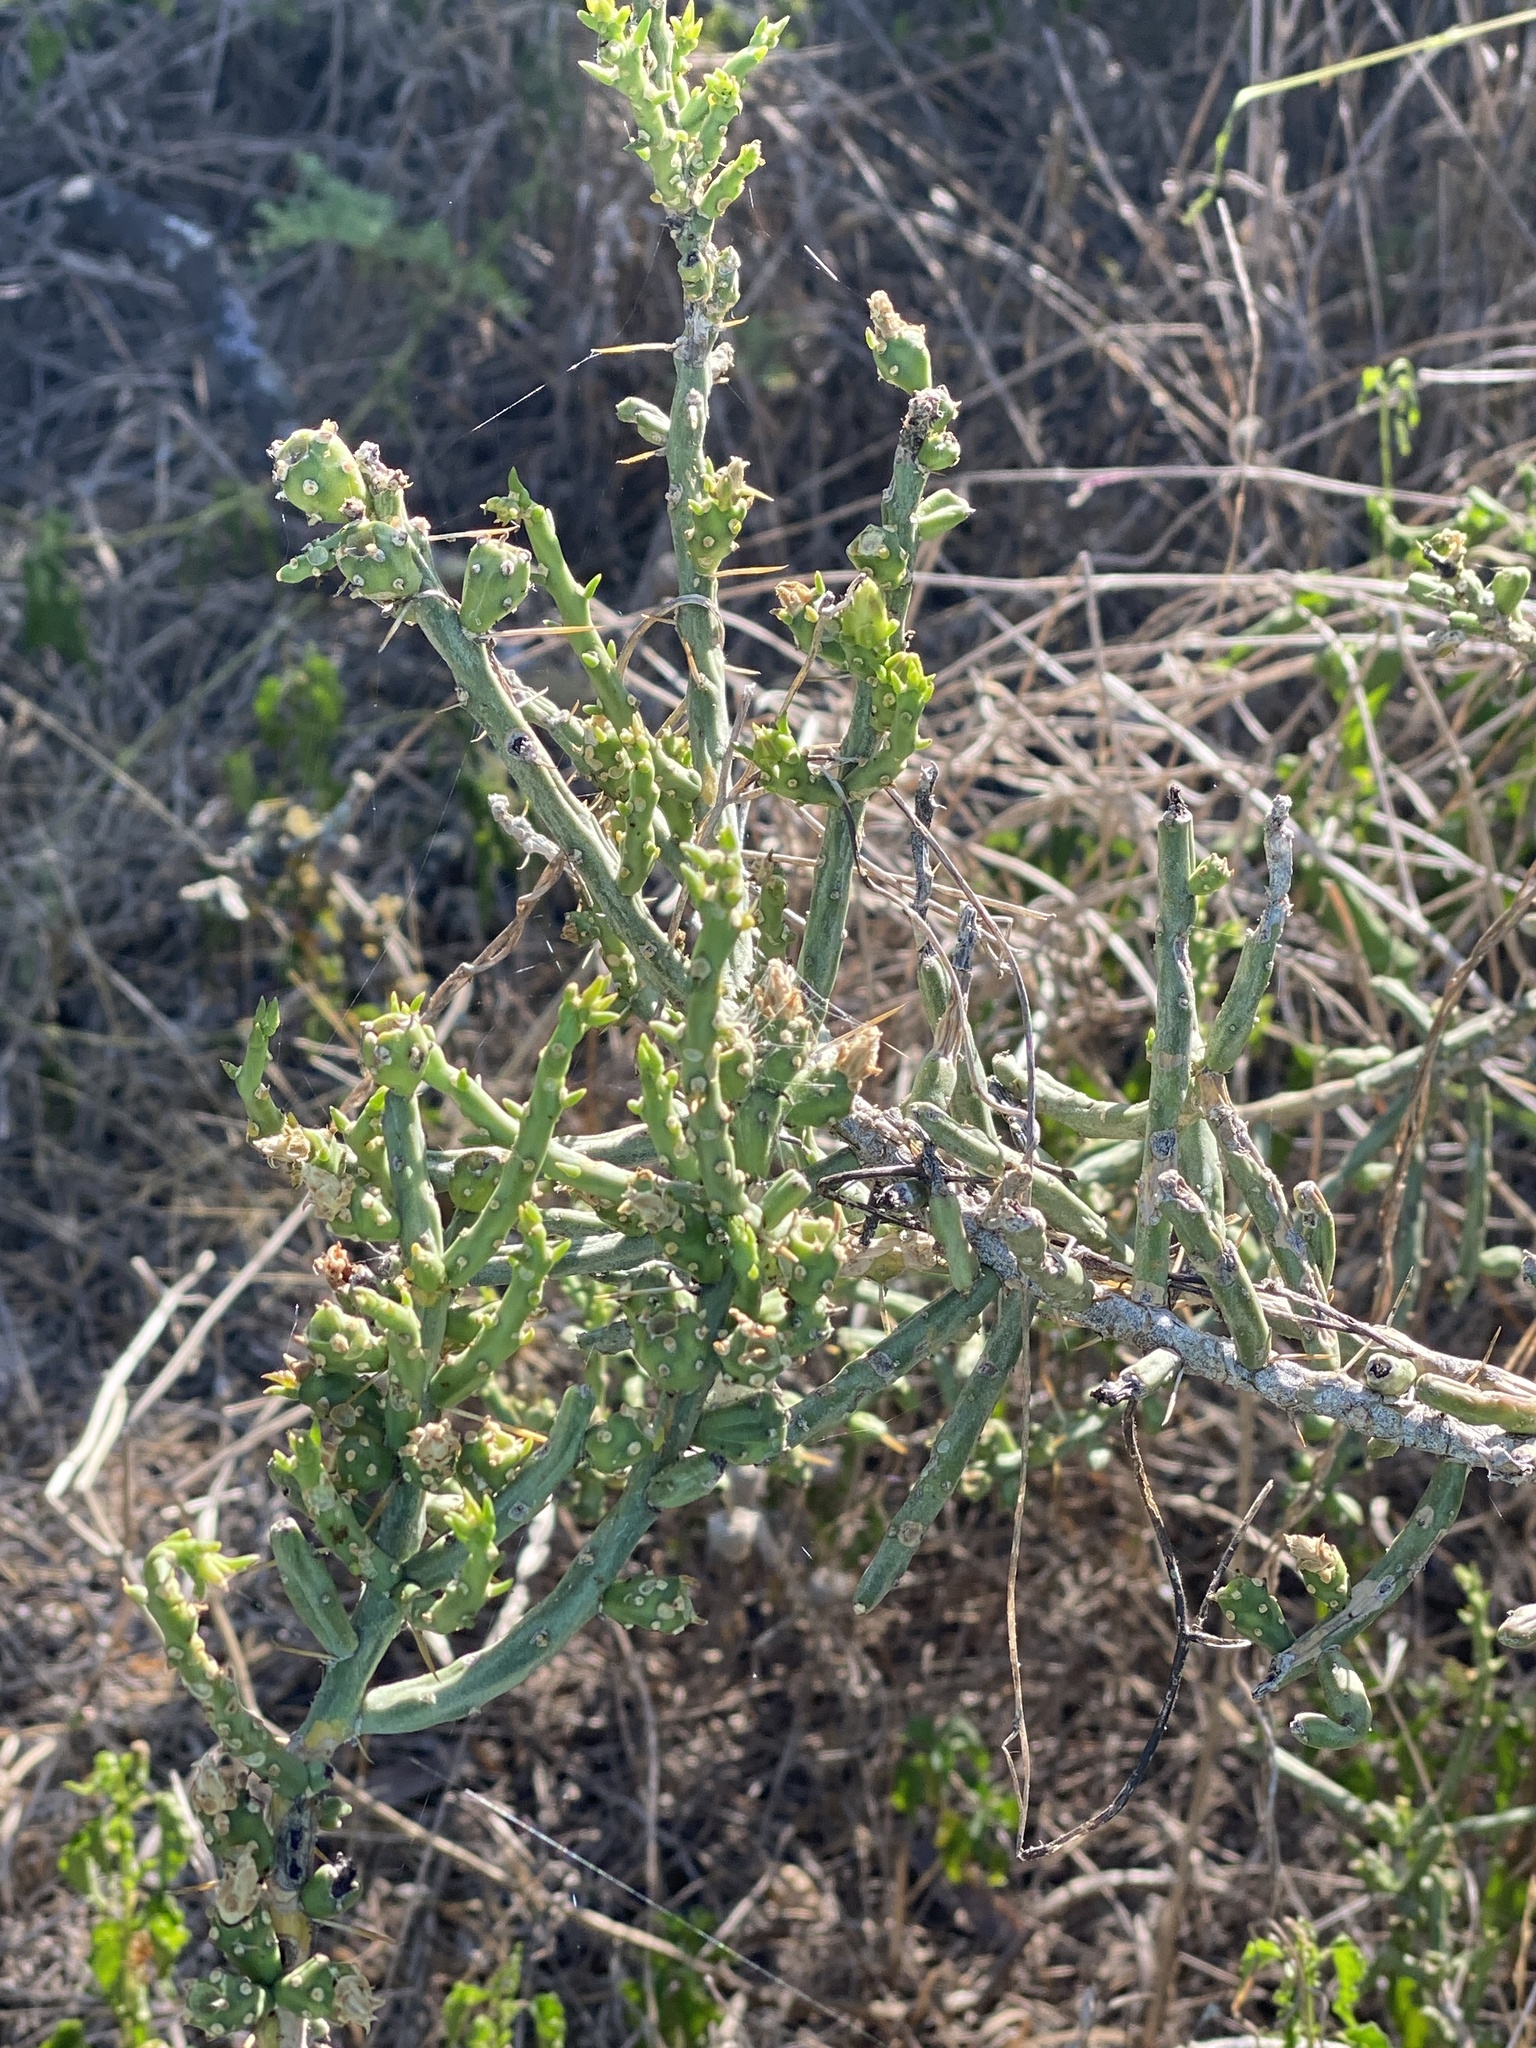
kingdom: Plantae
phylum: Tracheophyta
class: Magnoliopsida
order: Caryophyllales
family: Cactaceae
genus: Cylindropuntia
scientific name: Cylindropuntia leptocaulis
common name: Christmas cactus
